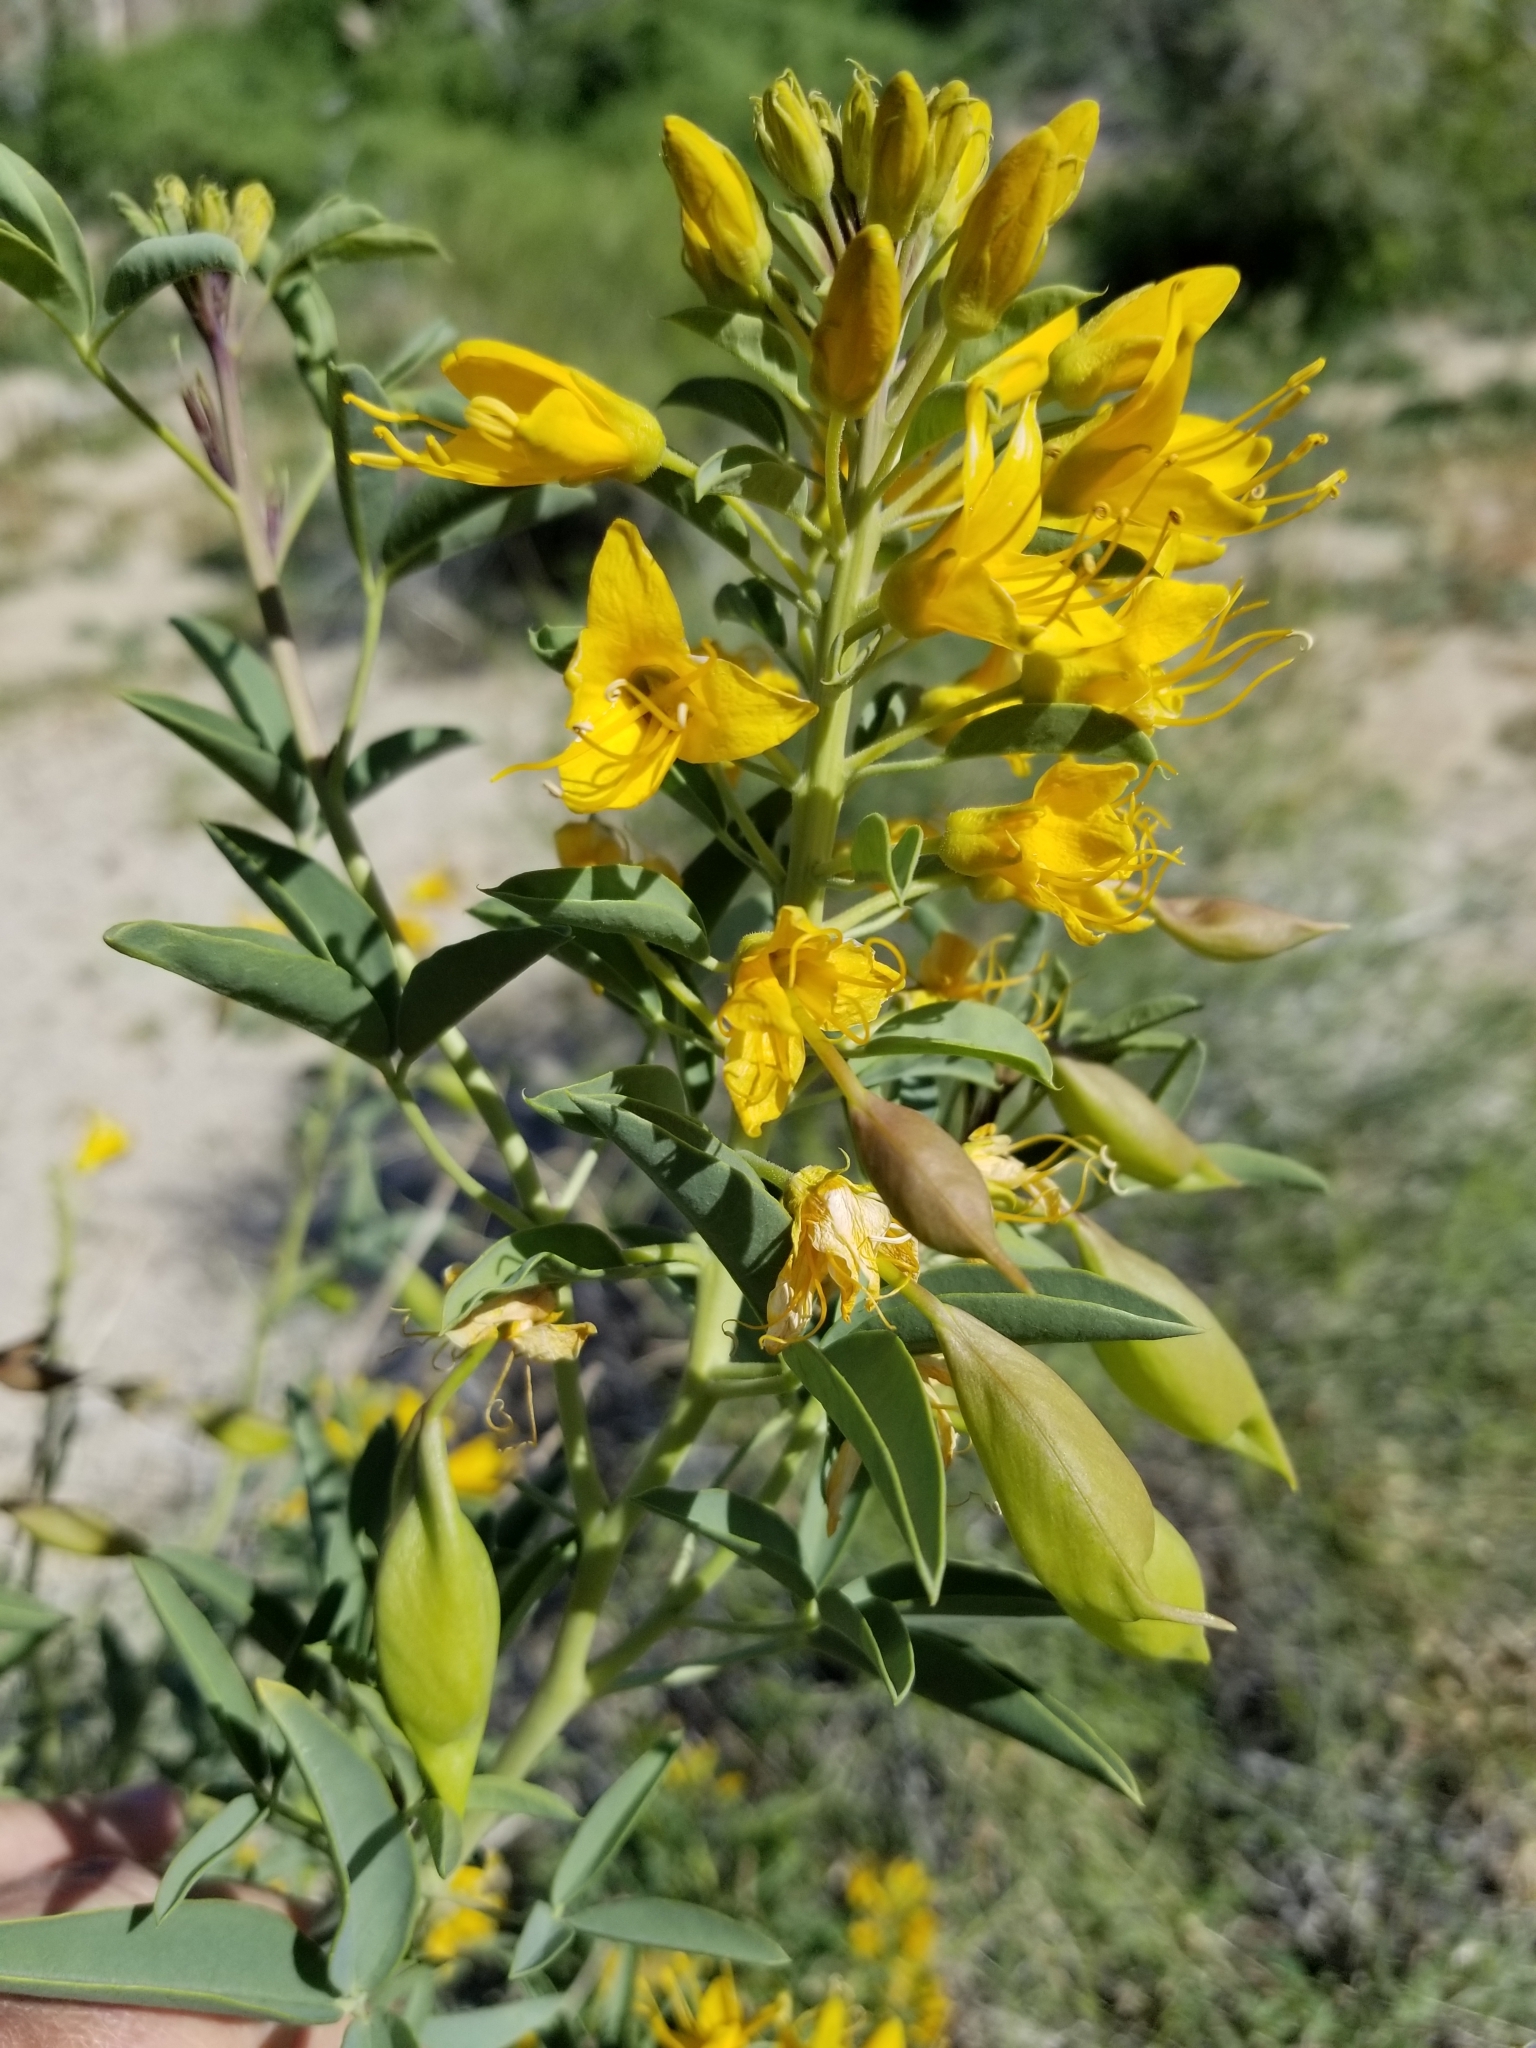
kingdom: Plantae
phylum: Tracheophyta
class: Magnoliopsida
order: Brassicales
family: Cleomaceae
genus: Cleomella
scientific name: Cleomella arborea
